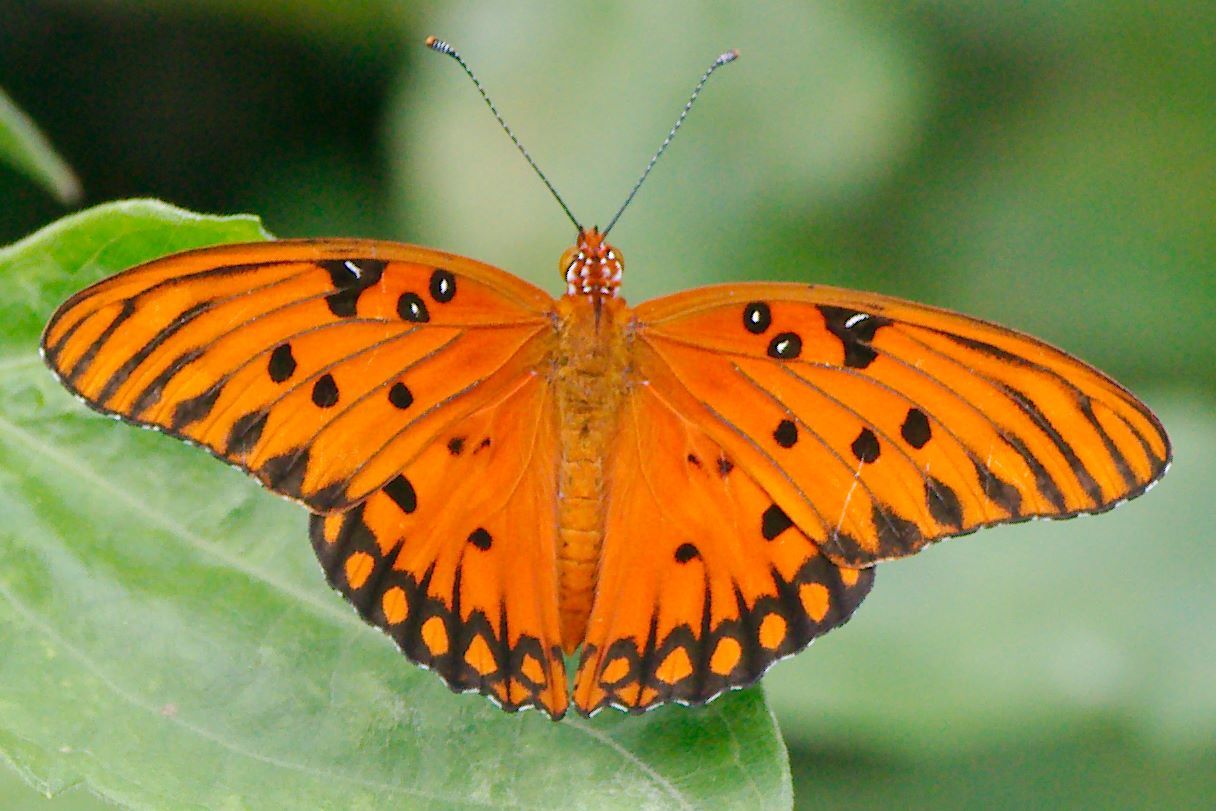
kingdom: Animalia
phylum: Arthropoda
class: Insecta
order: Lepidoptera
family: Nymphalidae
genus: Dione
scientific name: Dione vanillae
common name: Gulf fritillary
